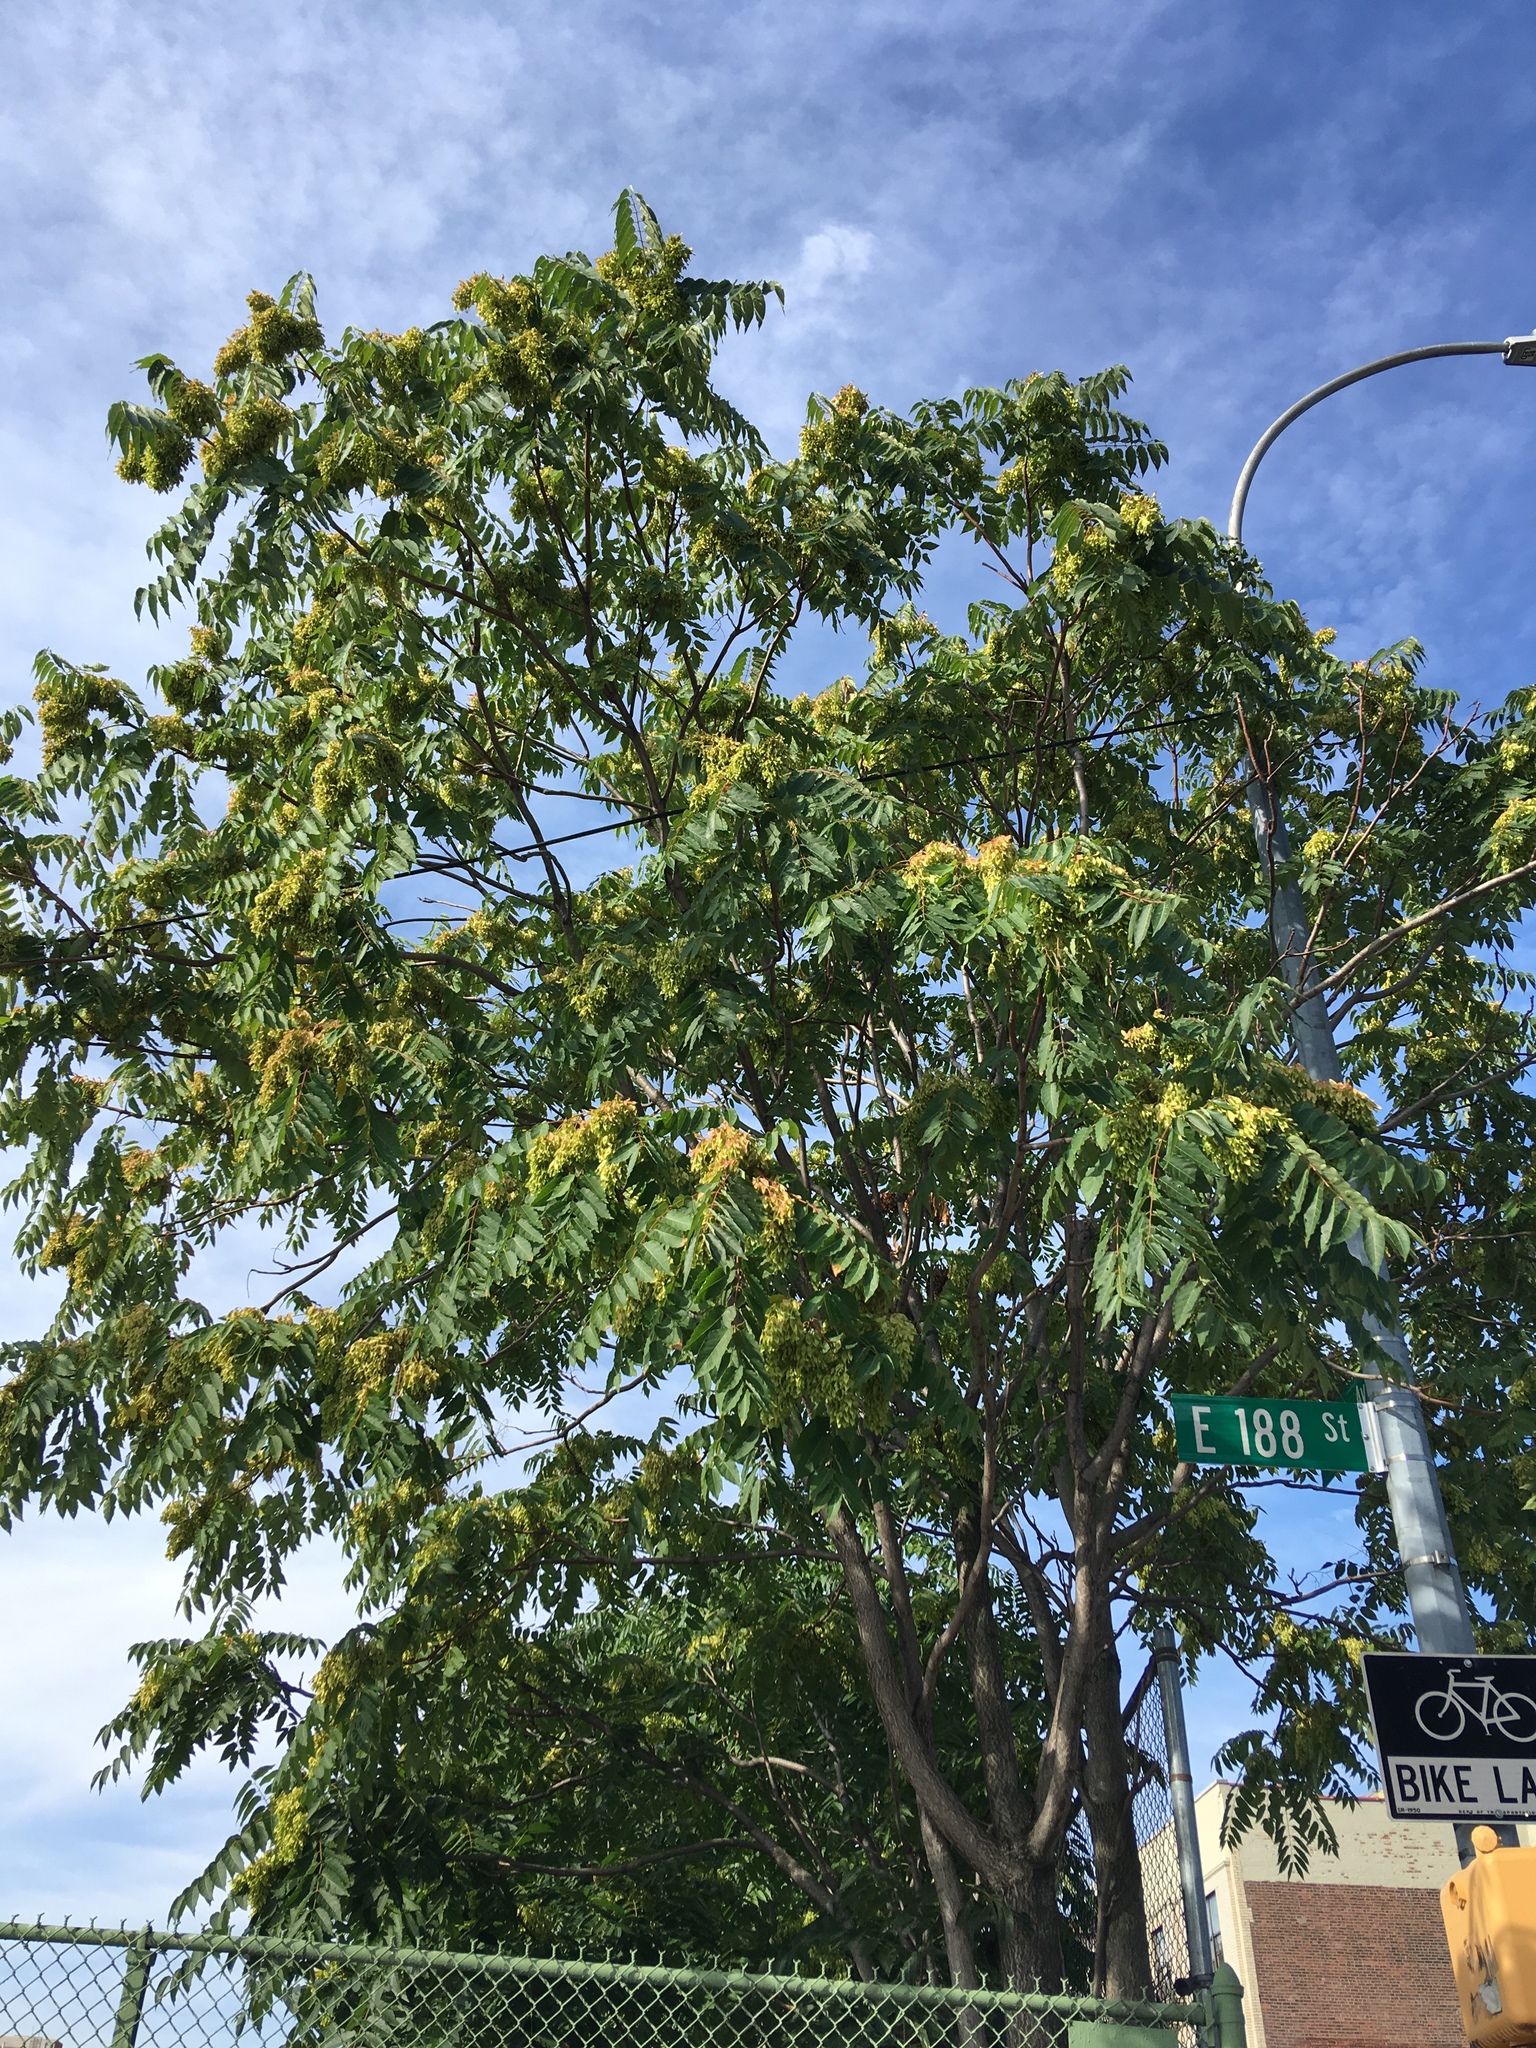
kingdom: Plantae
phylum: Tracheophyta
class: Magnoliopsida
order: Sapindales
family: Simaroubaceae
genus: Ailanthus
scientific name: Ailanthus altissima
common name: Tree-of-heaven
